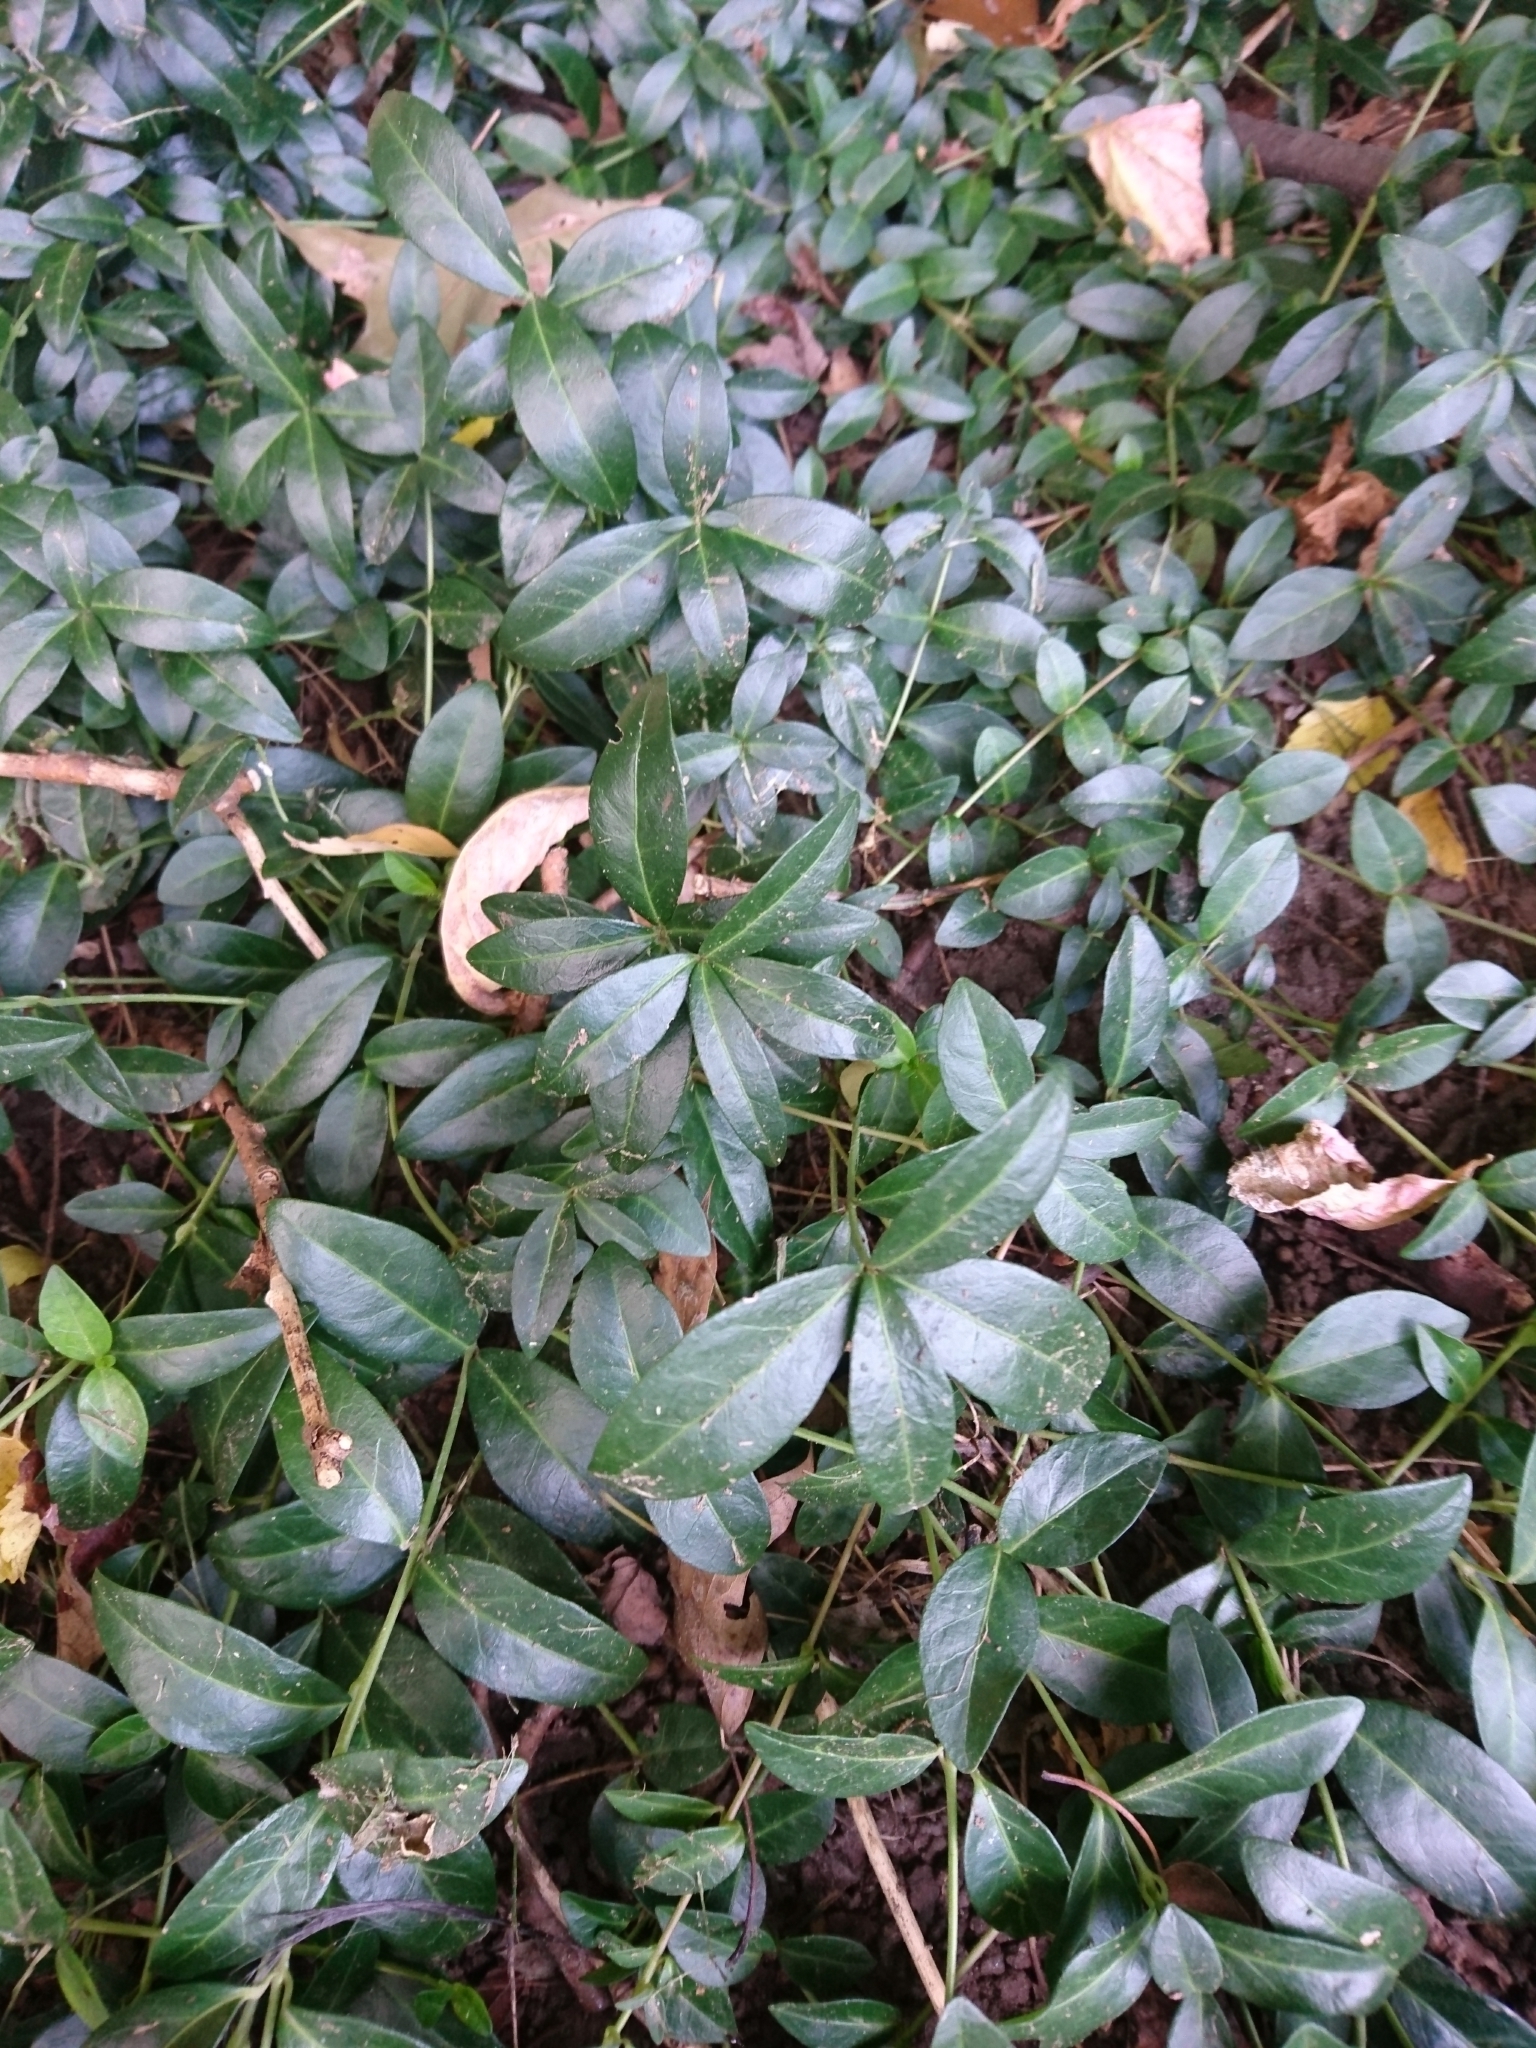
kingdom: Plantae
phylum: Tracheophyta
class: Magnoliopsida
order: Gentianales
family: Apocynaceae
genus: Vinca
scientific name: Vinca minor
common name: Lesser periwinkle
